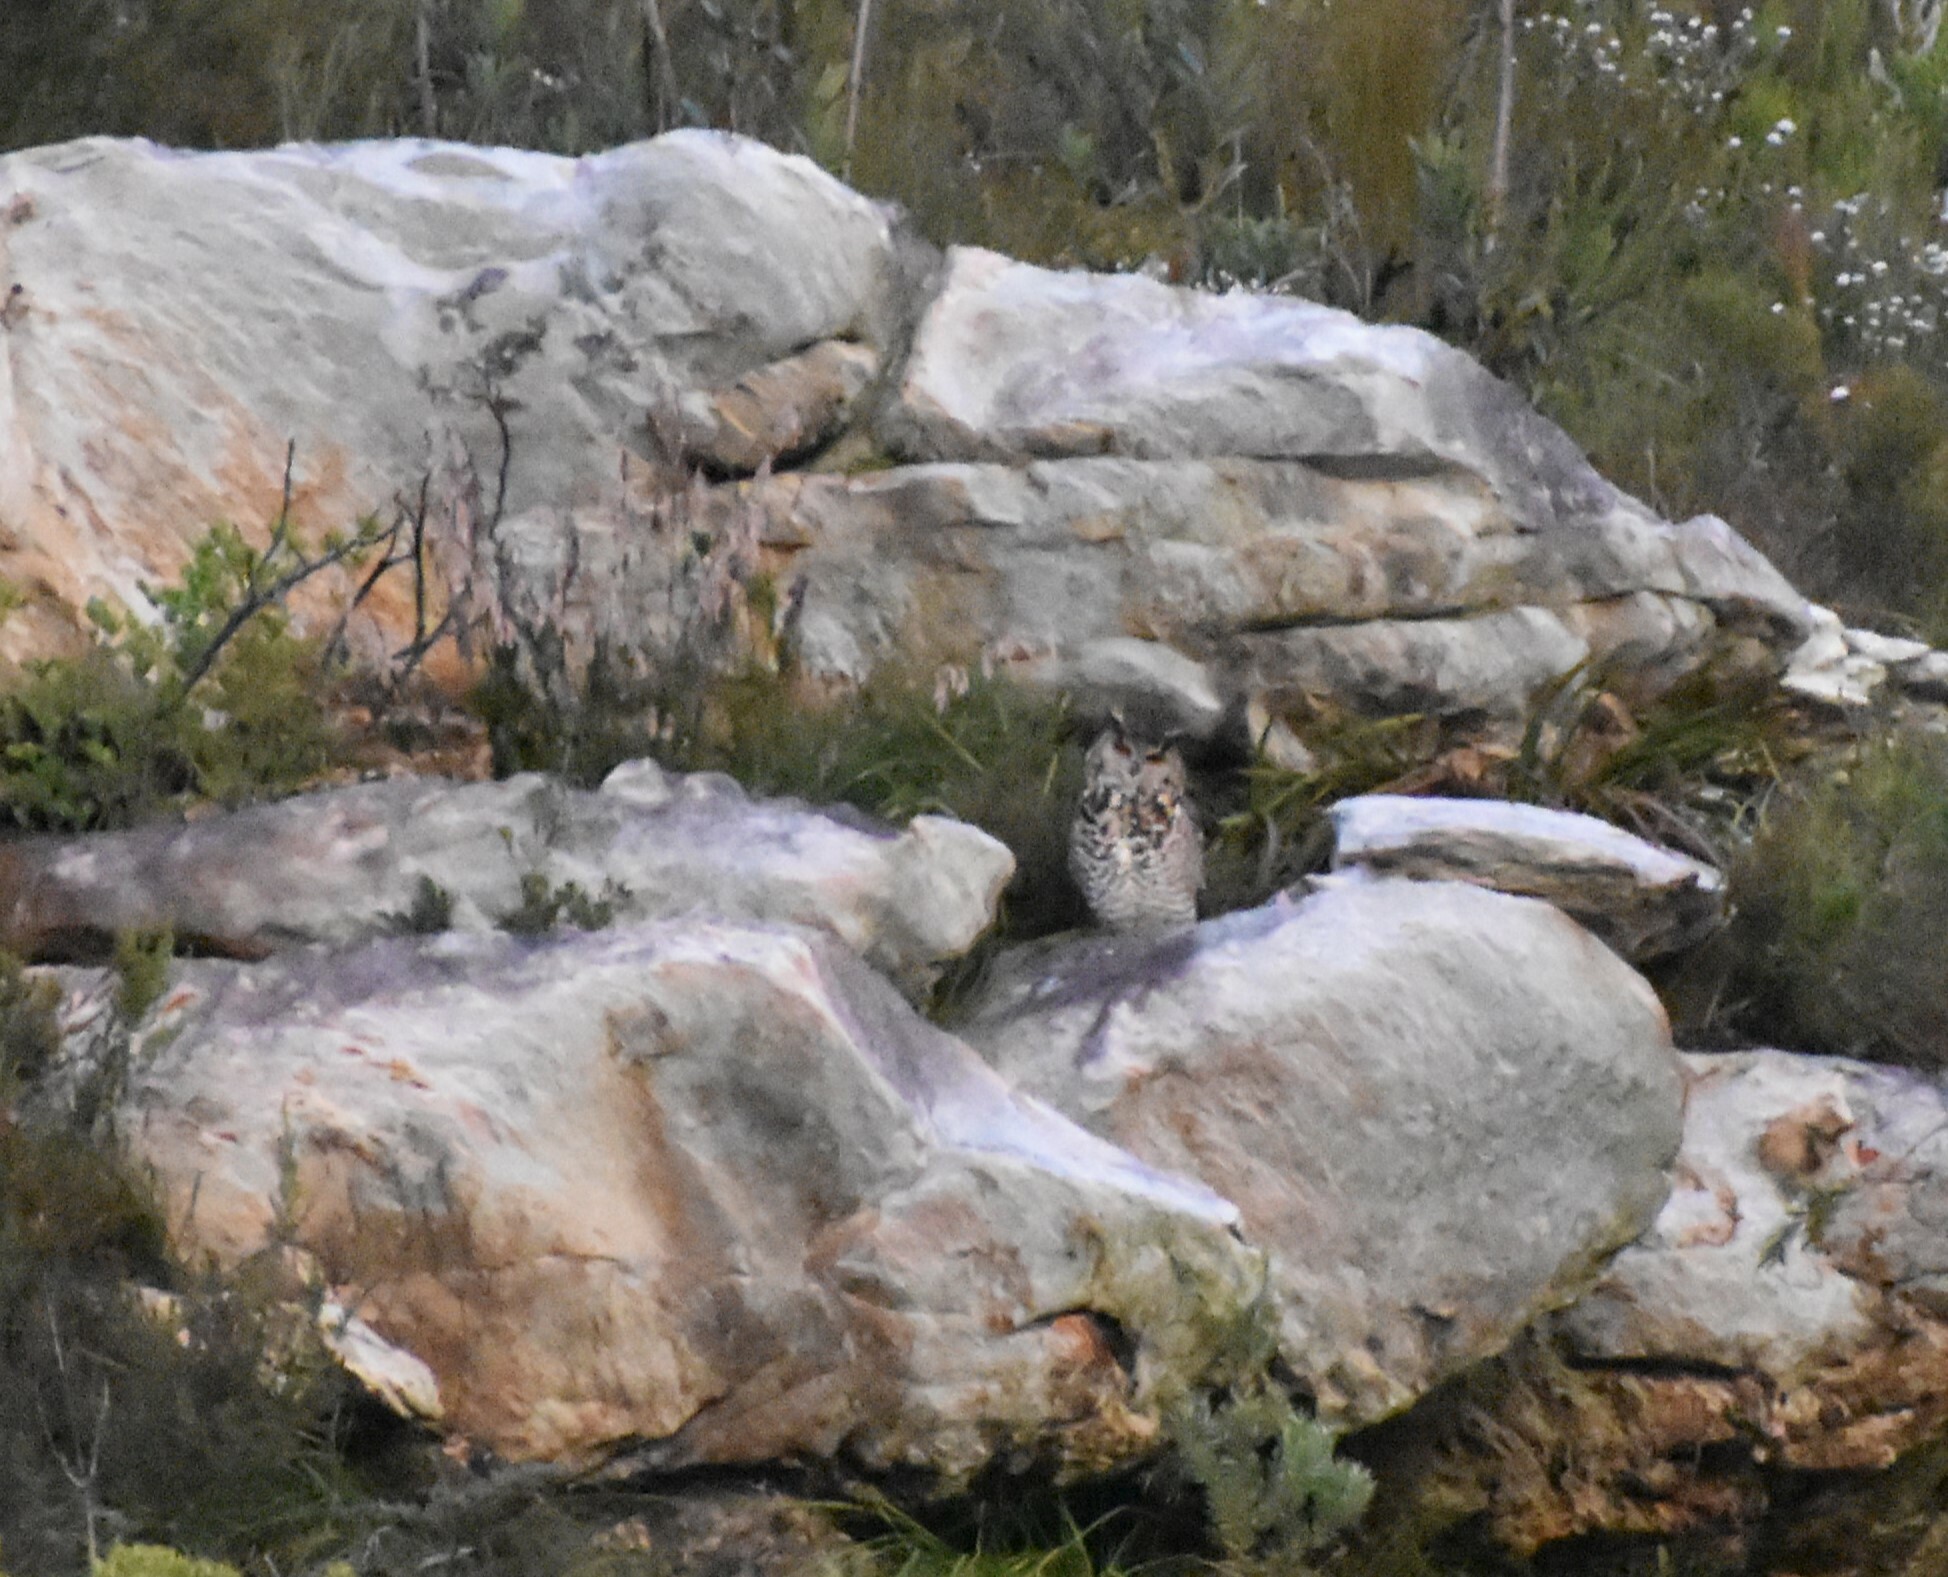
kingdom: Animalia
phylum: Chordata
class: Aves
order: Strigiformes
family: Strigidae
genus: Bubo
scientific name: Bubo capensis
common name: Cape eagle-owl
